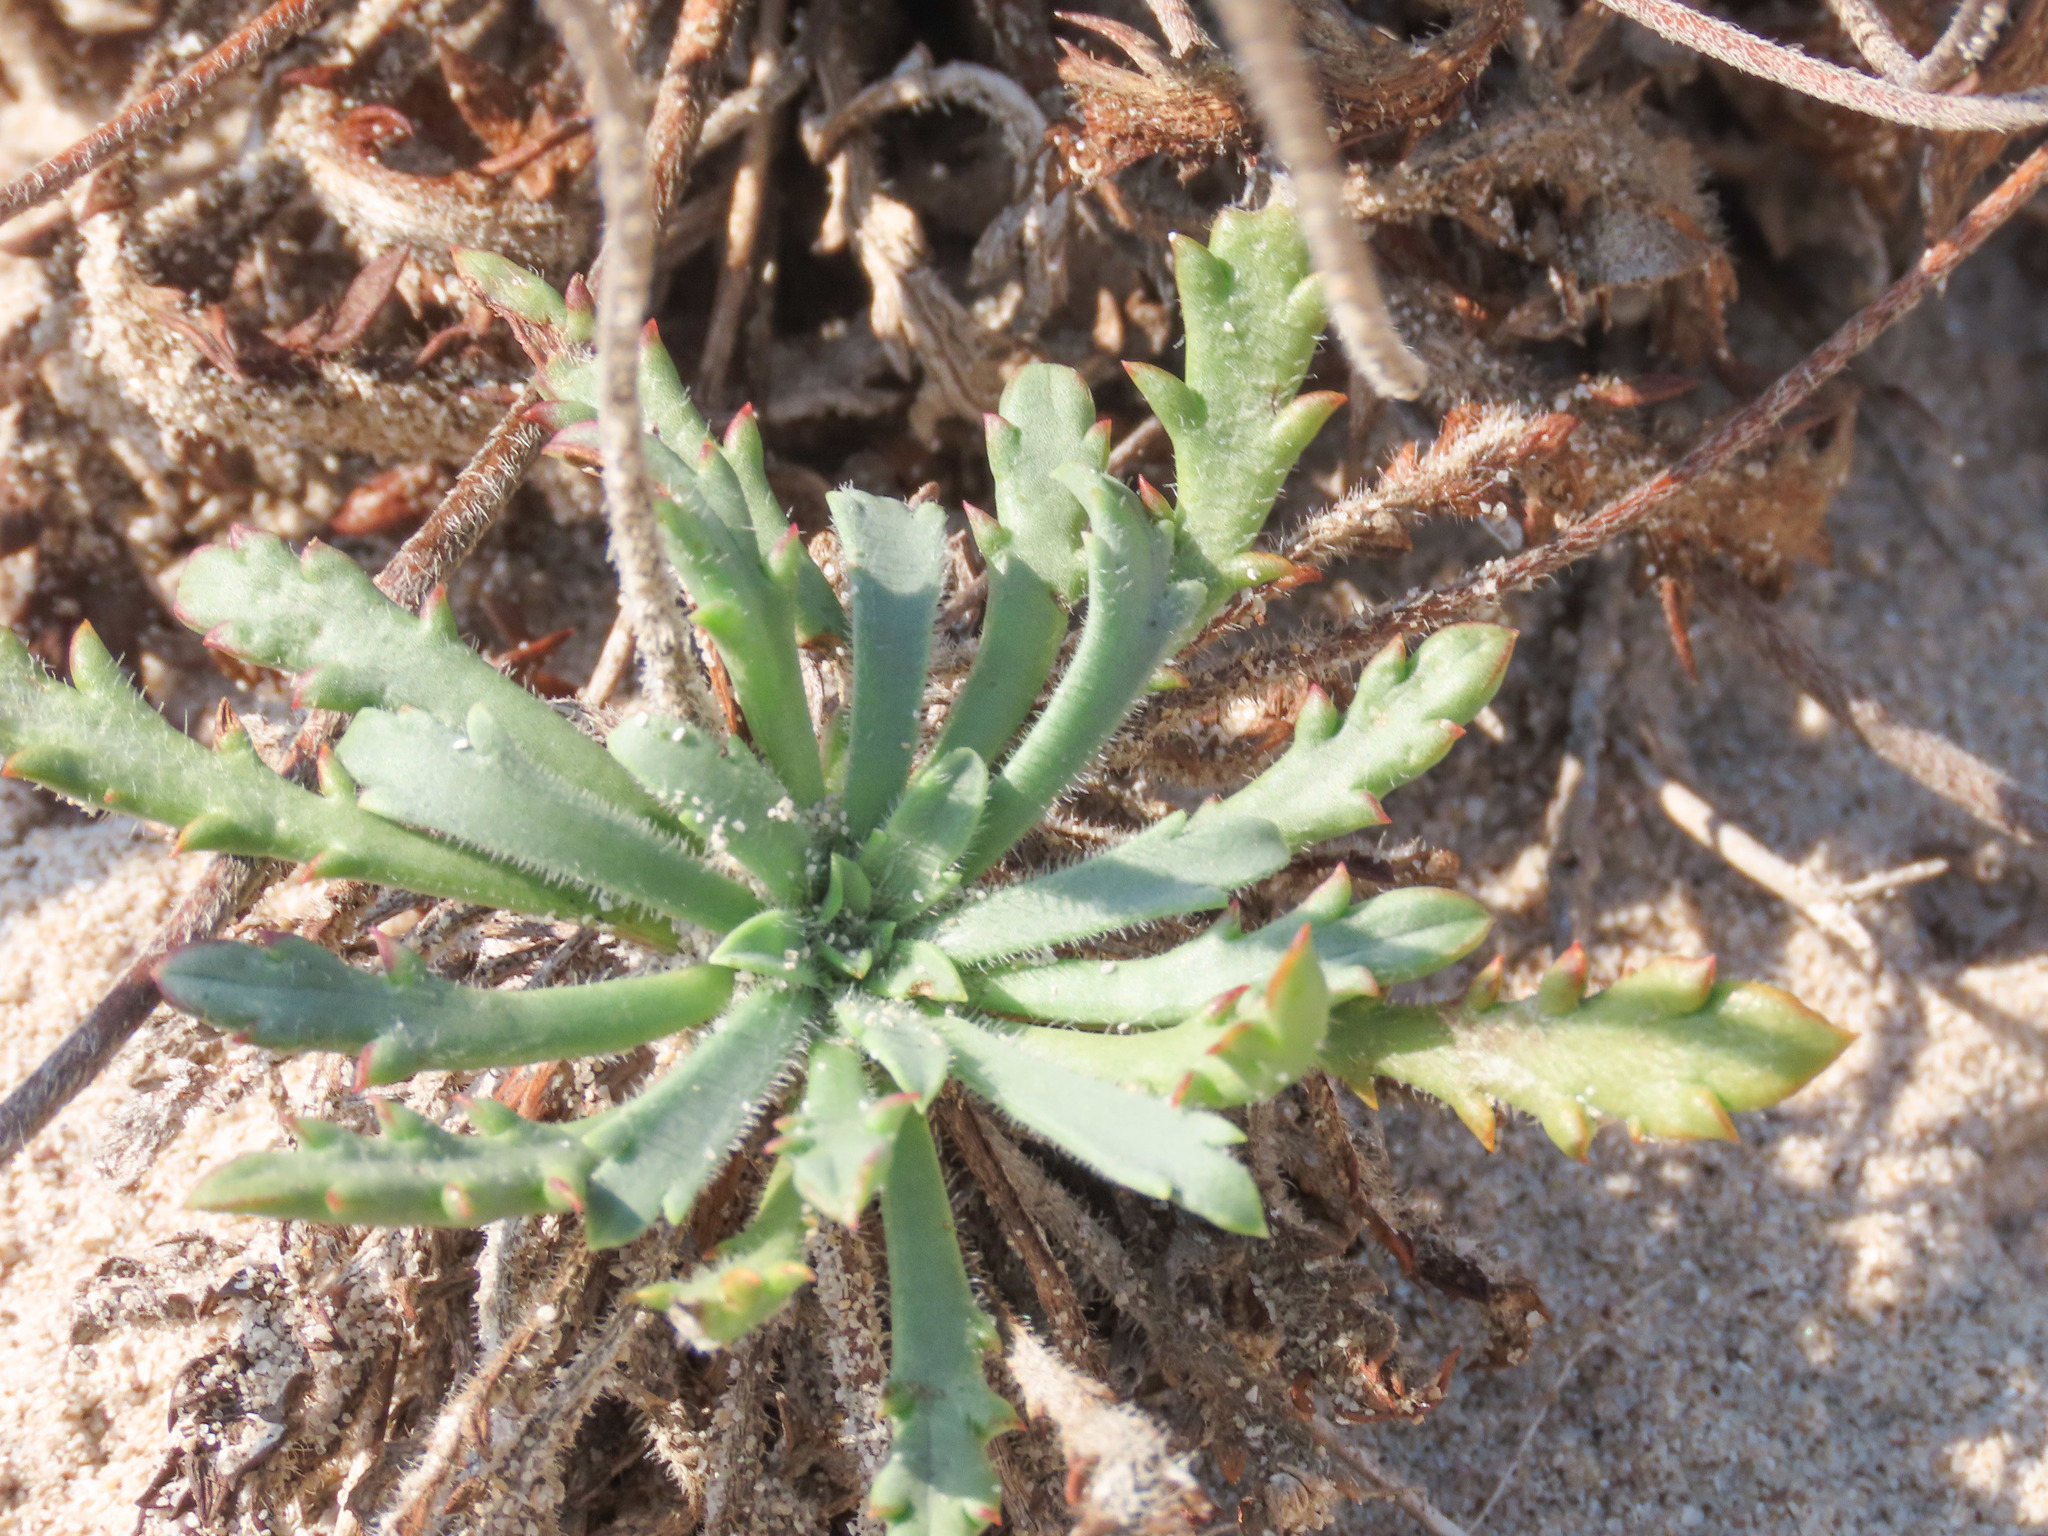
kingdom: Plantae
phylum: Tracheophyta
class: Magnoliopsida
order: Lamiales
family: Plantaginaceae
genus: Plantago
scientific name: Plantago macrorhiza
